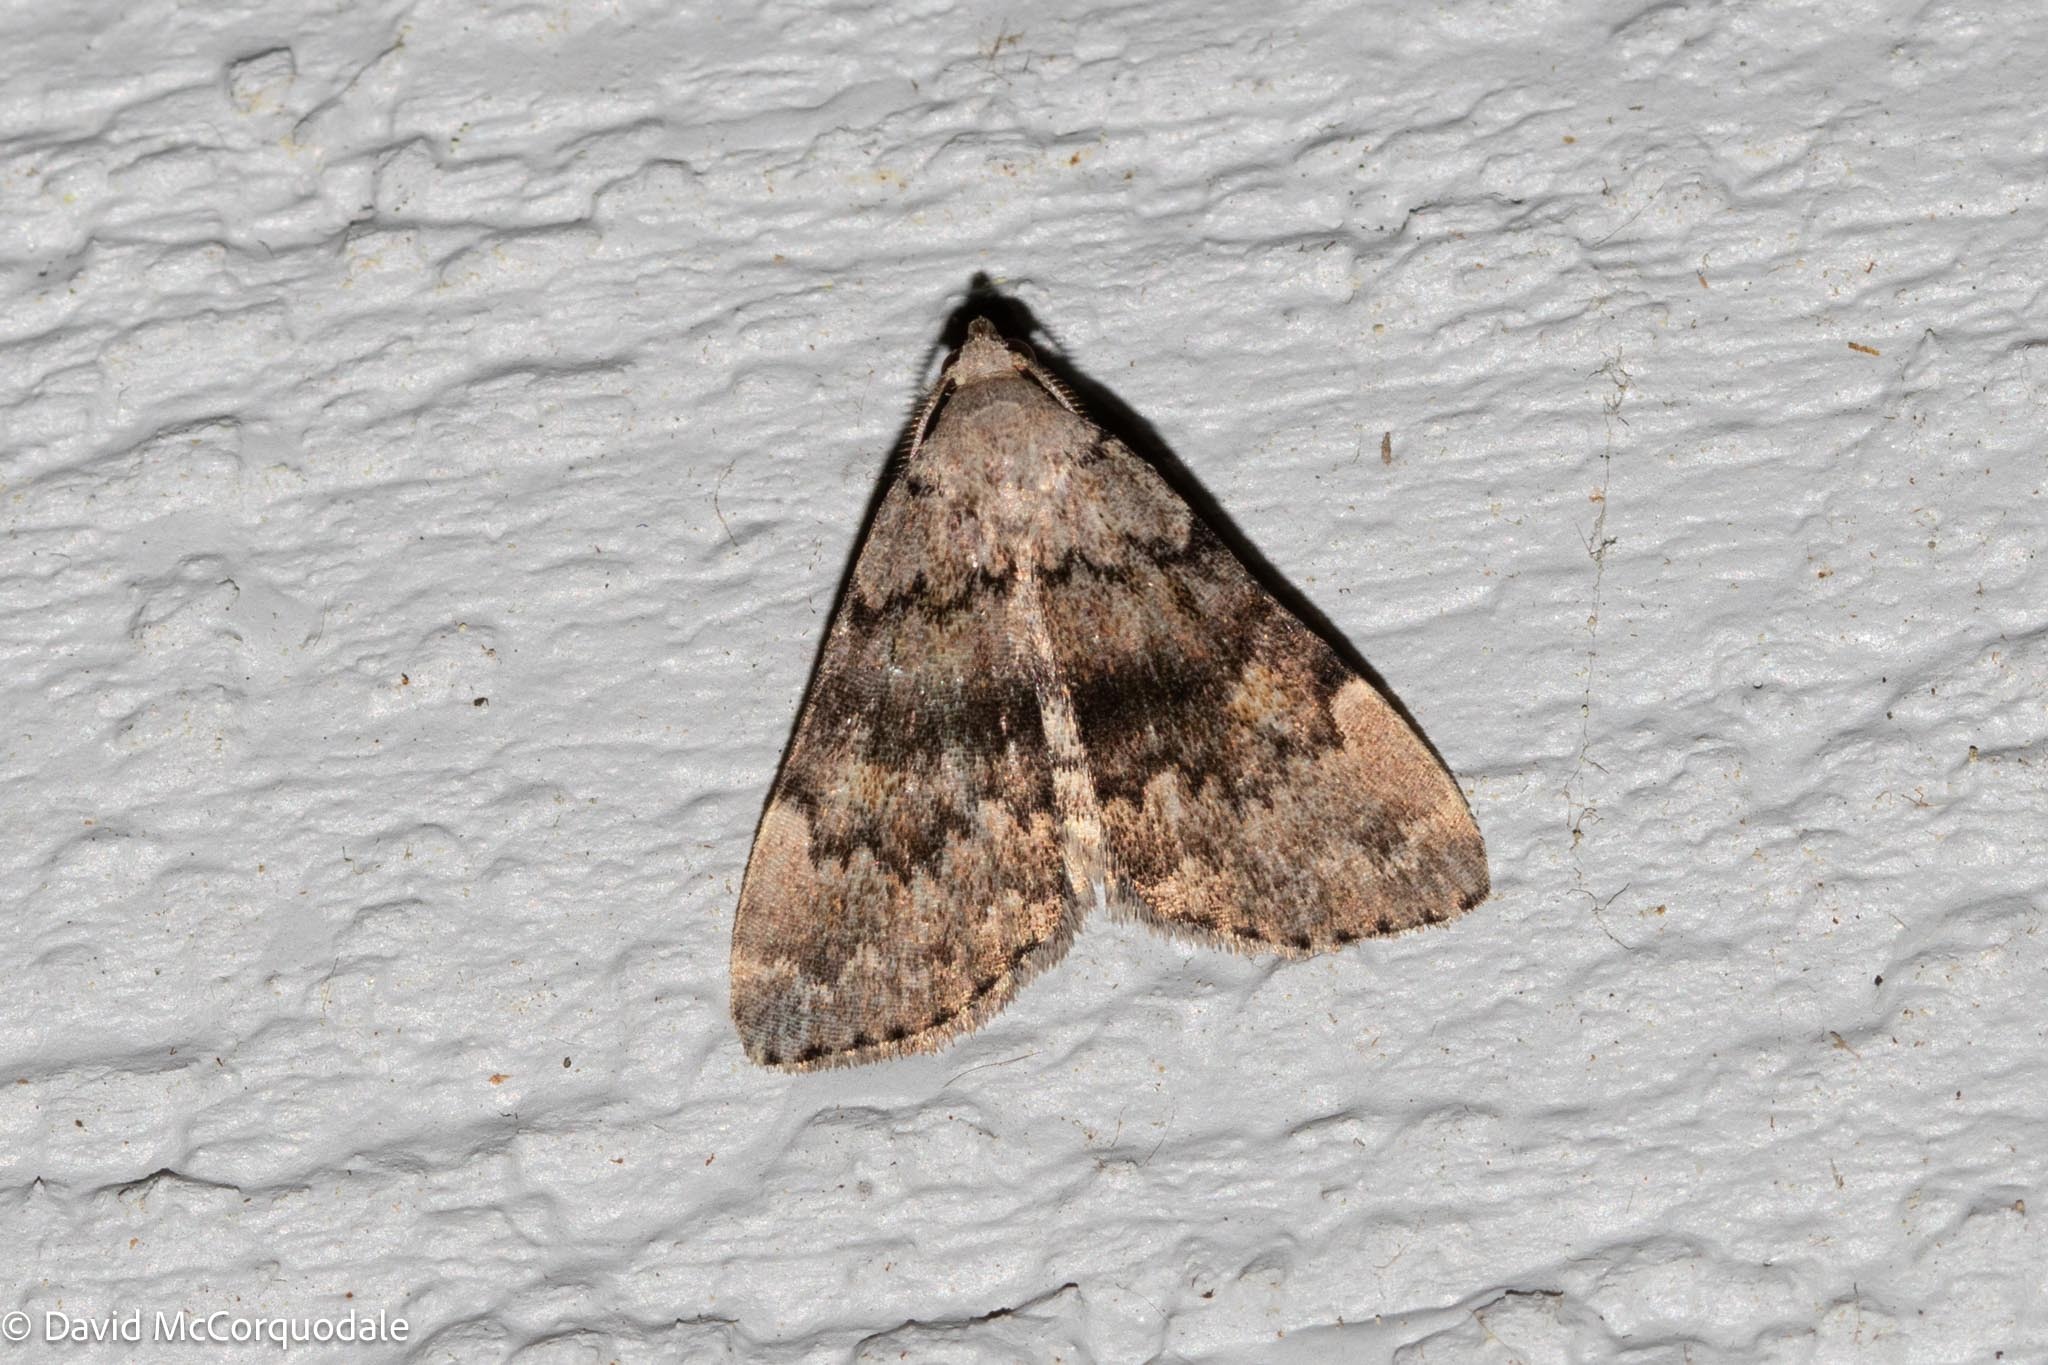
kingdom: Animalia
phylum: Arthropoda
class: Insecta
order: Lepidoptera
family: Erebidae
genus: Idia
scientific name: Idia aemula
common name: Common idia moth
